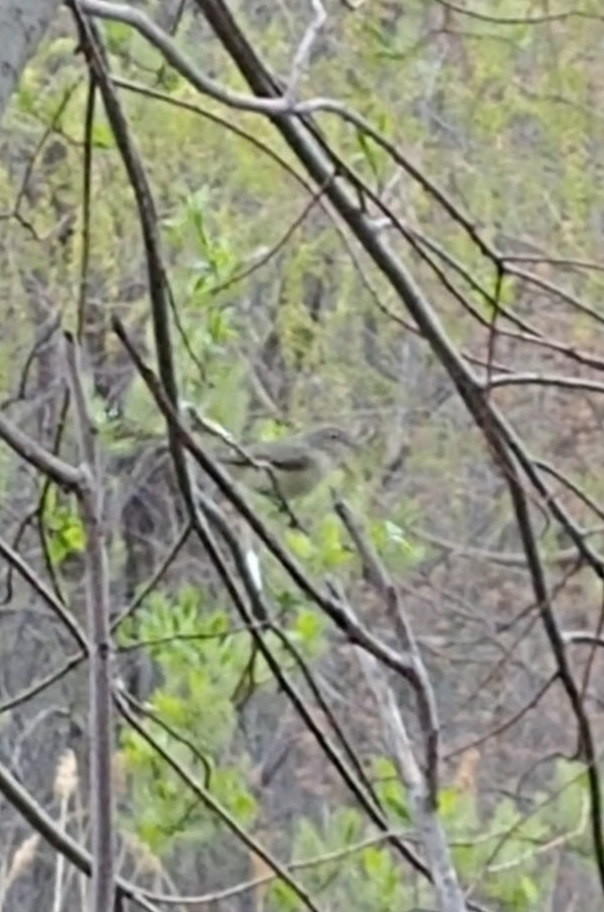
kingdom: Animalia
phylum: Chordata
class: Aves
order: Passeriformes
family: Parulidae
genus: Setophaga
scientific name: Setophaga caerulescens
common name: Black-throated blue warbler
